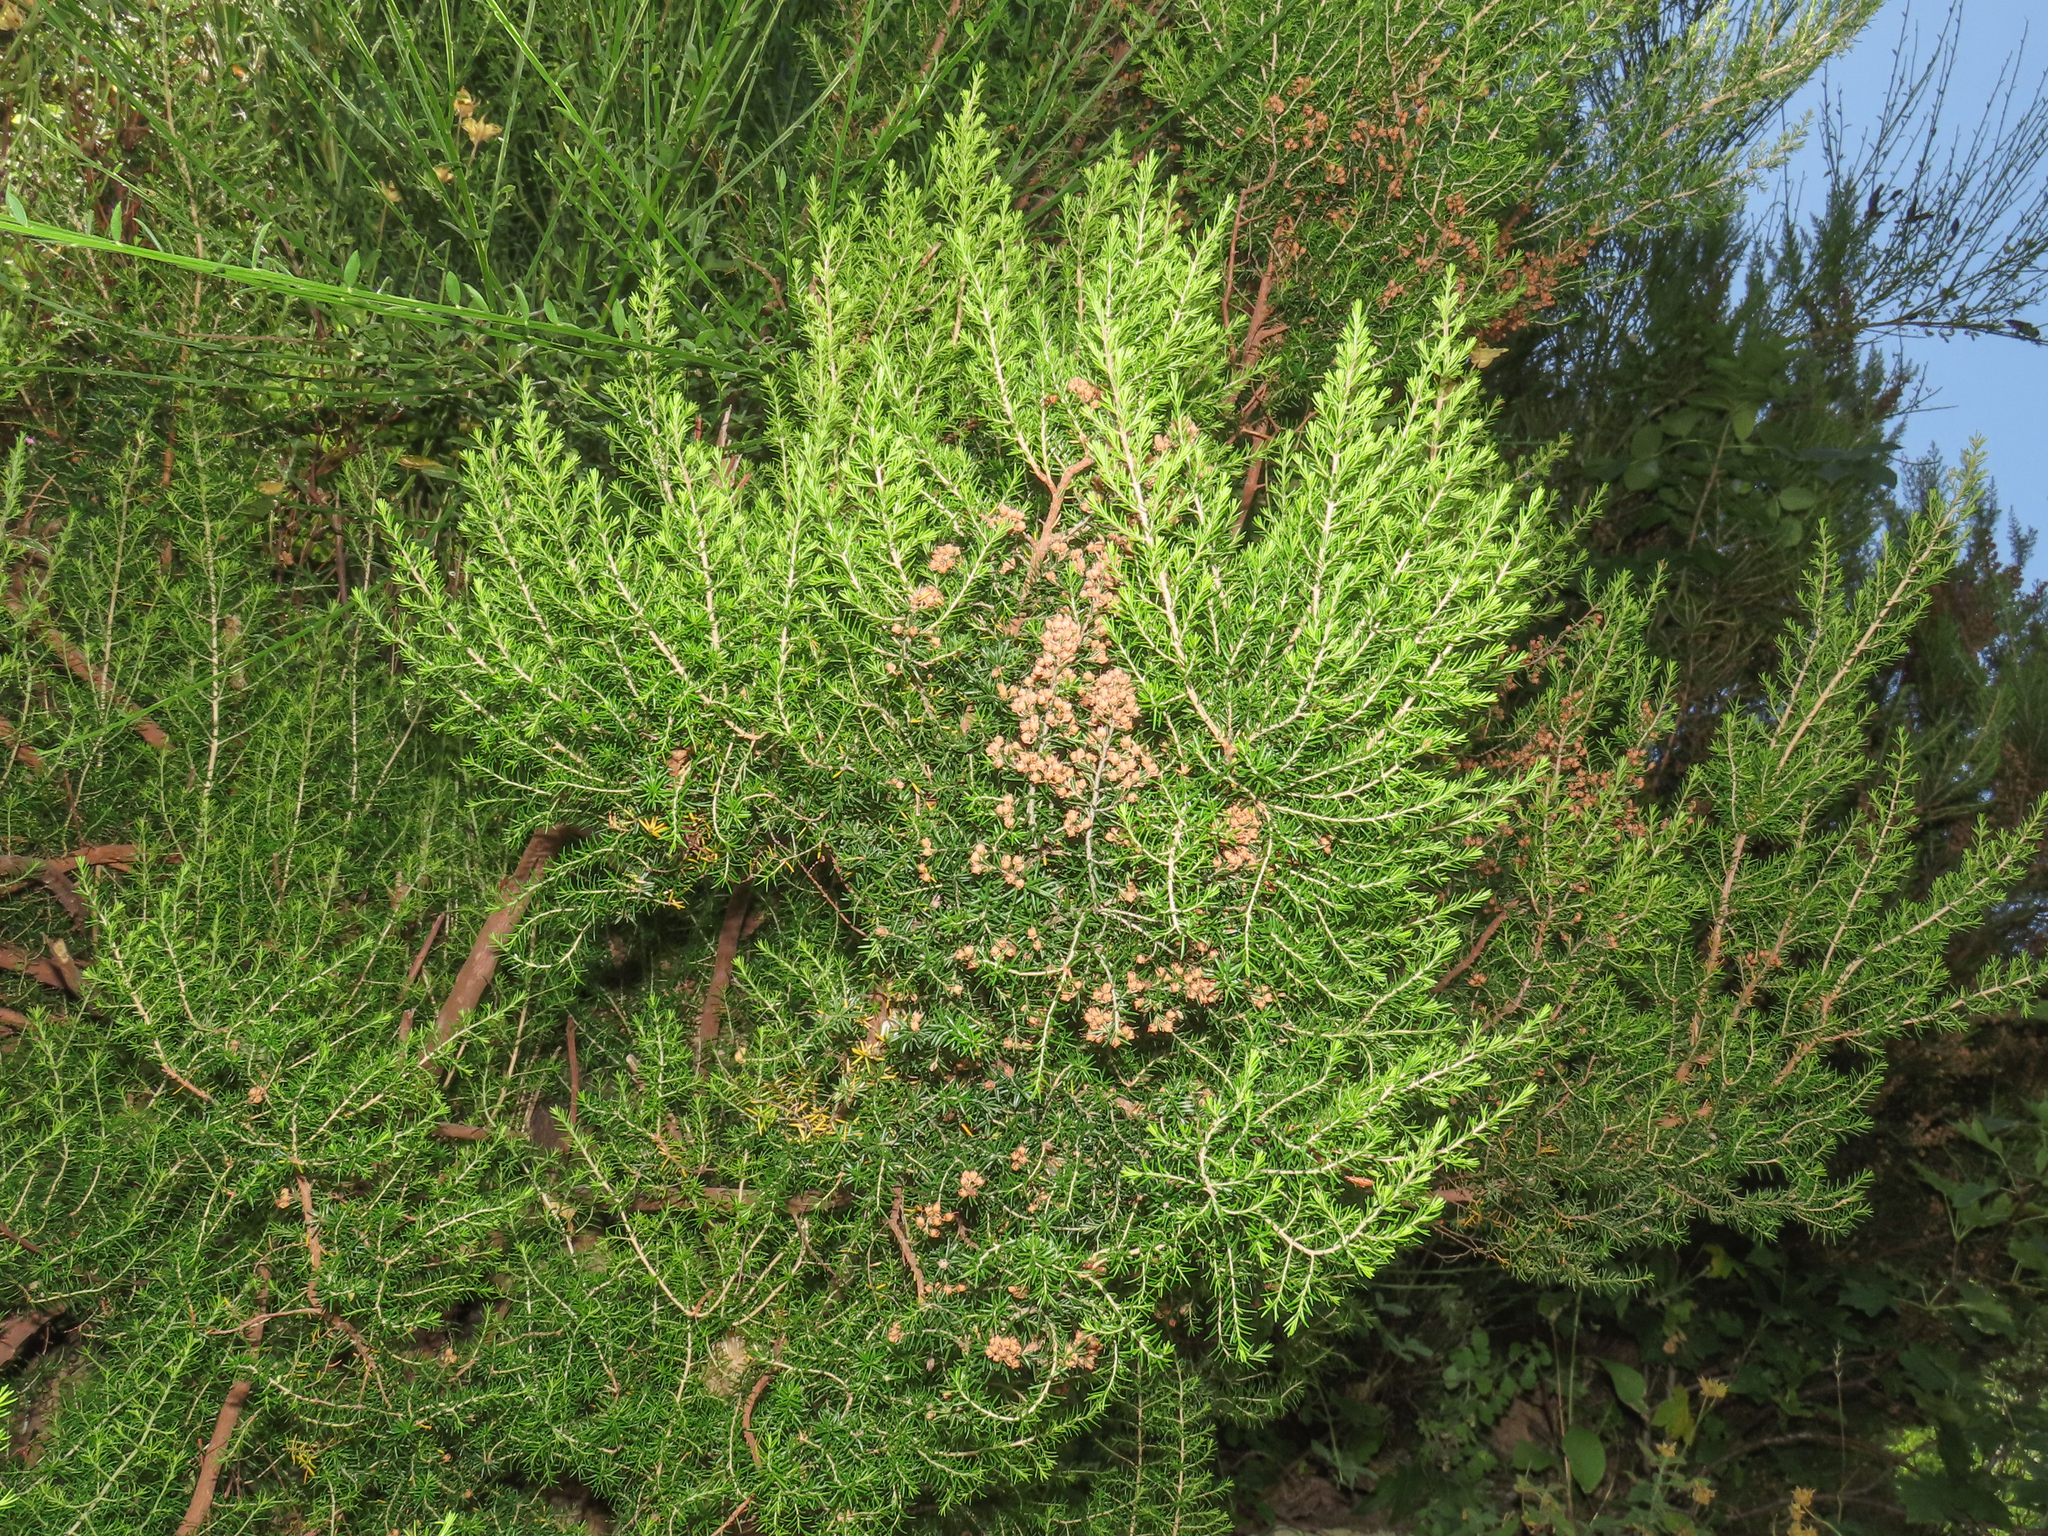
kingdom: Plantae
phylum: Tracheophyta
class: Magnoliopsida
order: Ericales
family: Ericaceae
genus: Erica
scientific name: Erica arborea
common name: Tree heath
